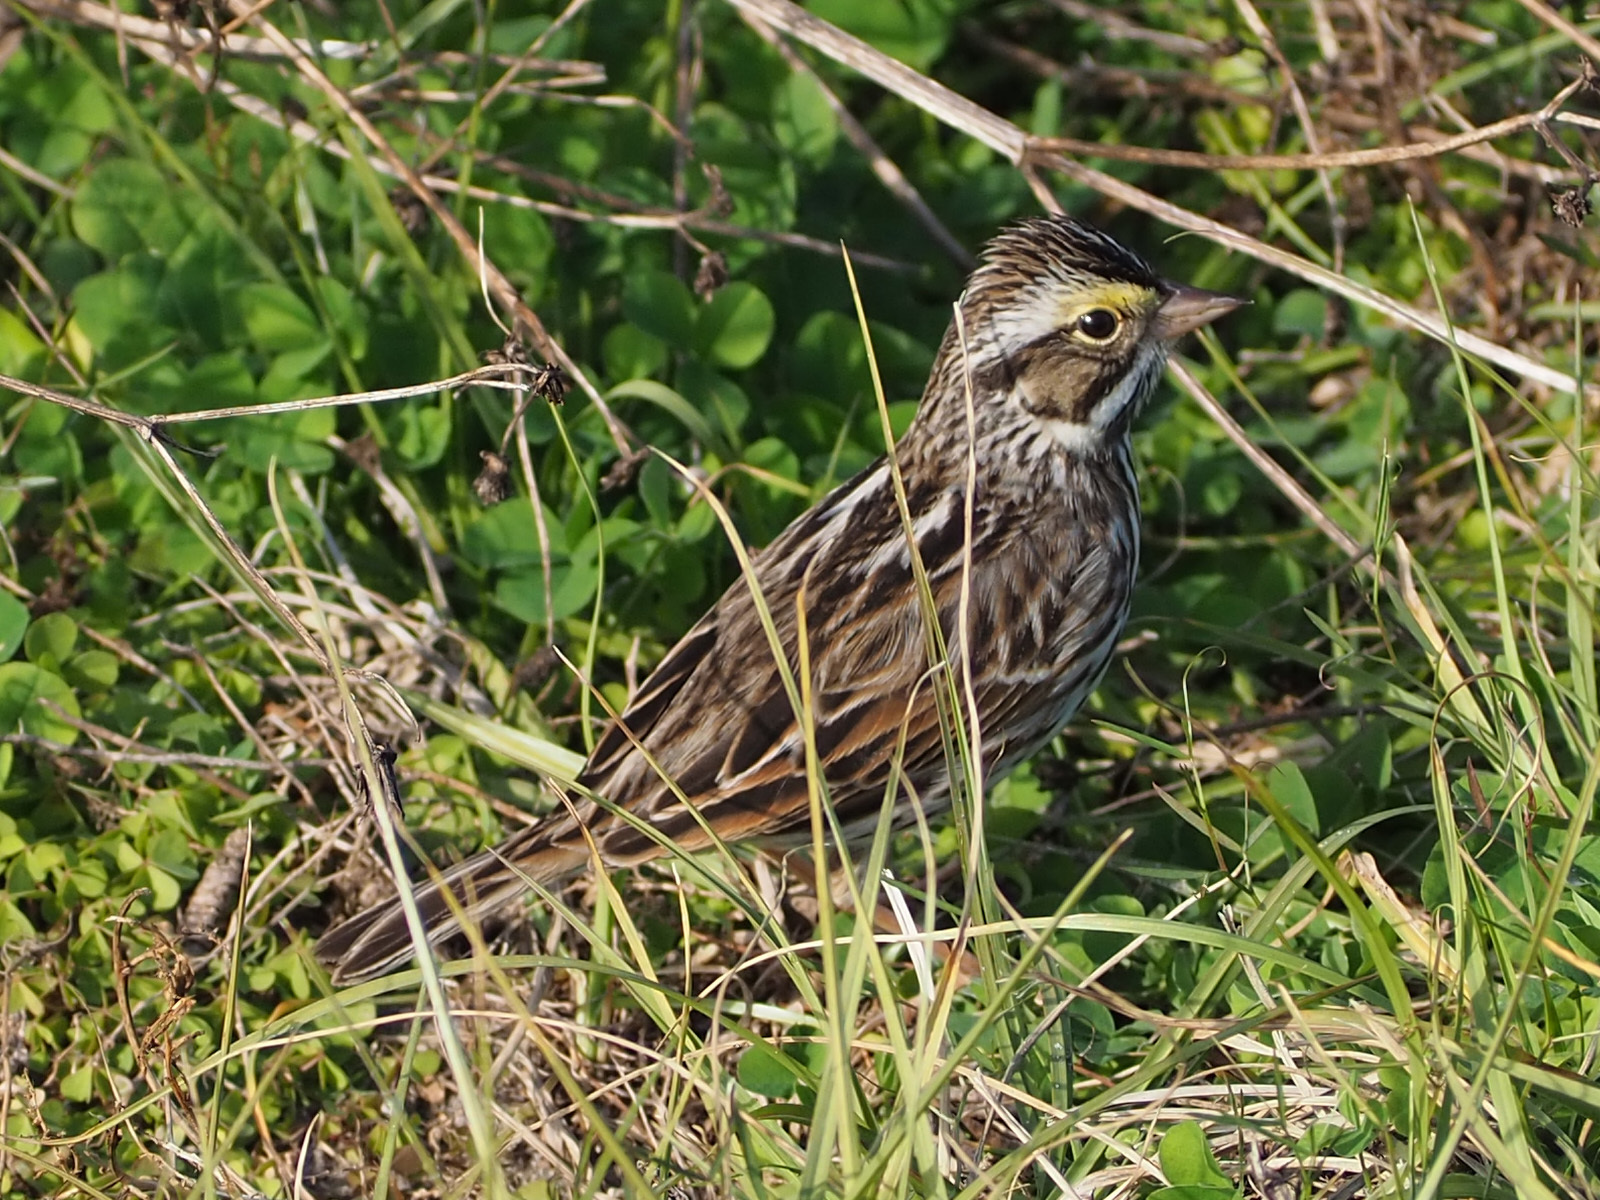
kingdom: Animalia
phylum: Chordata
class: Aves
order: Passeriformes
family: Passerellidae
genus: Passerculus
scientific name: Passerculus sandwichensis
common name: Savannah sparrow
